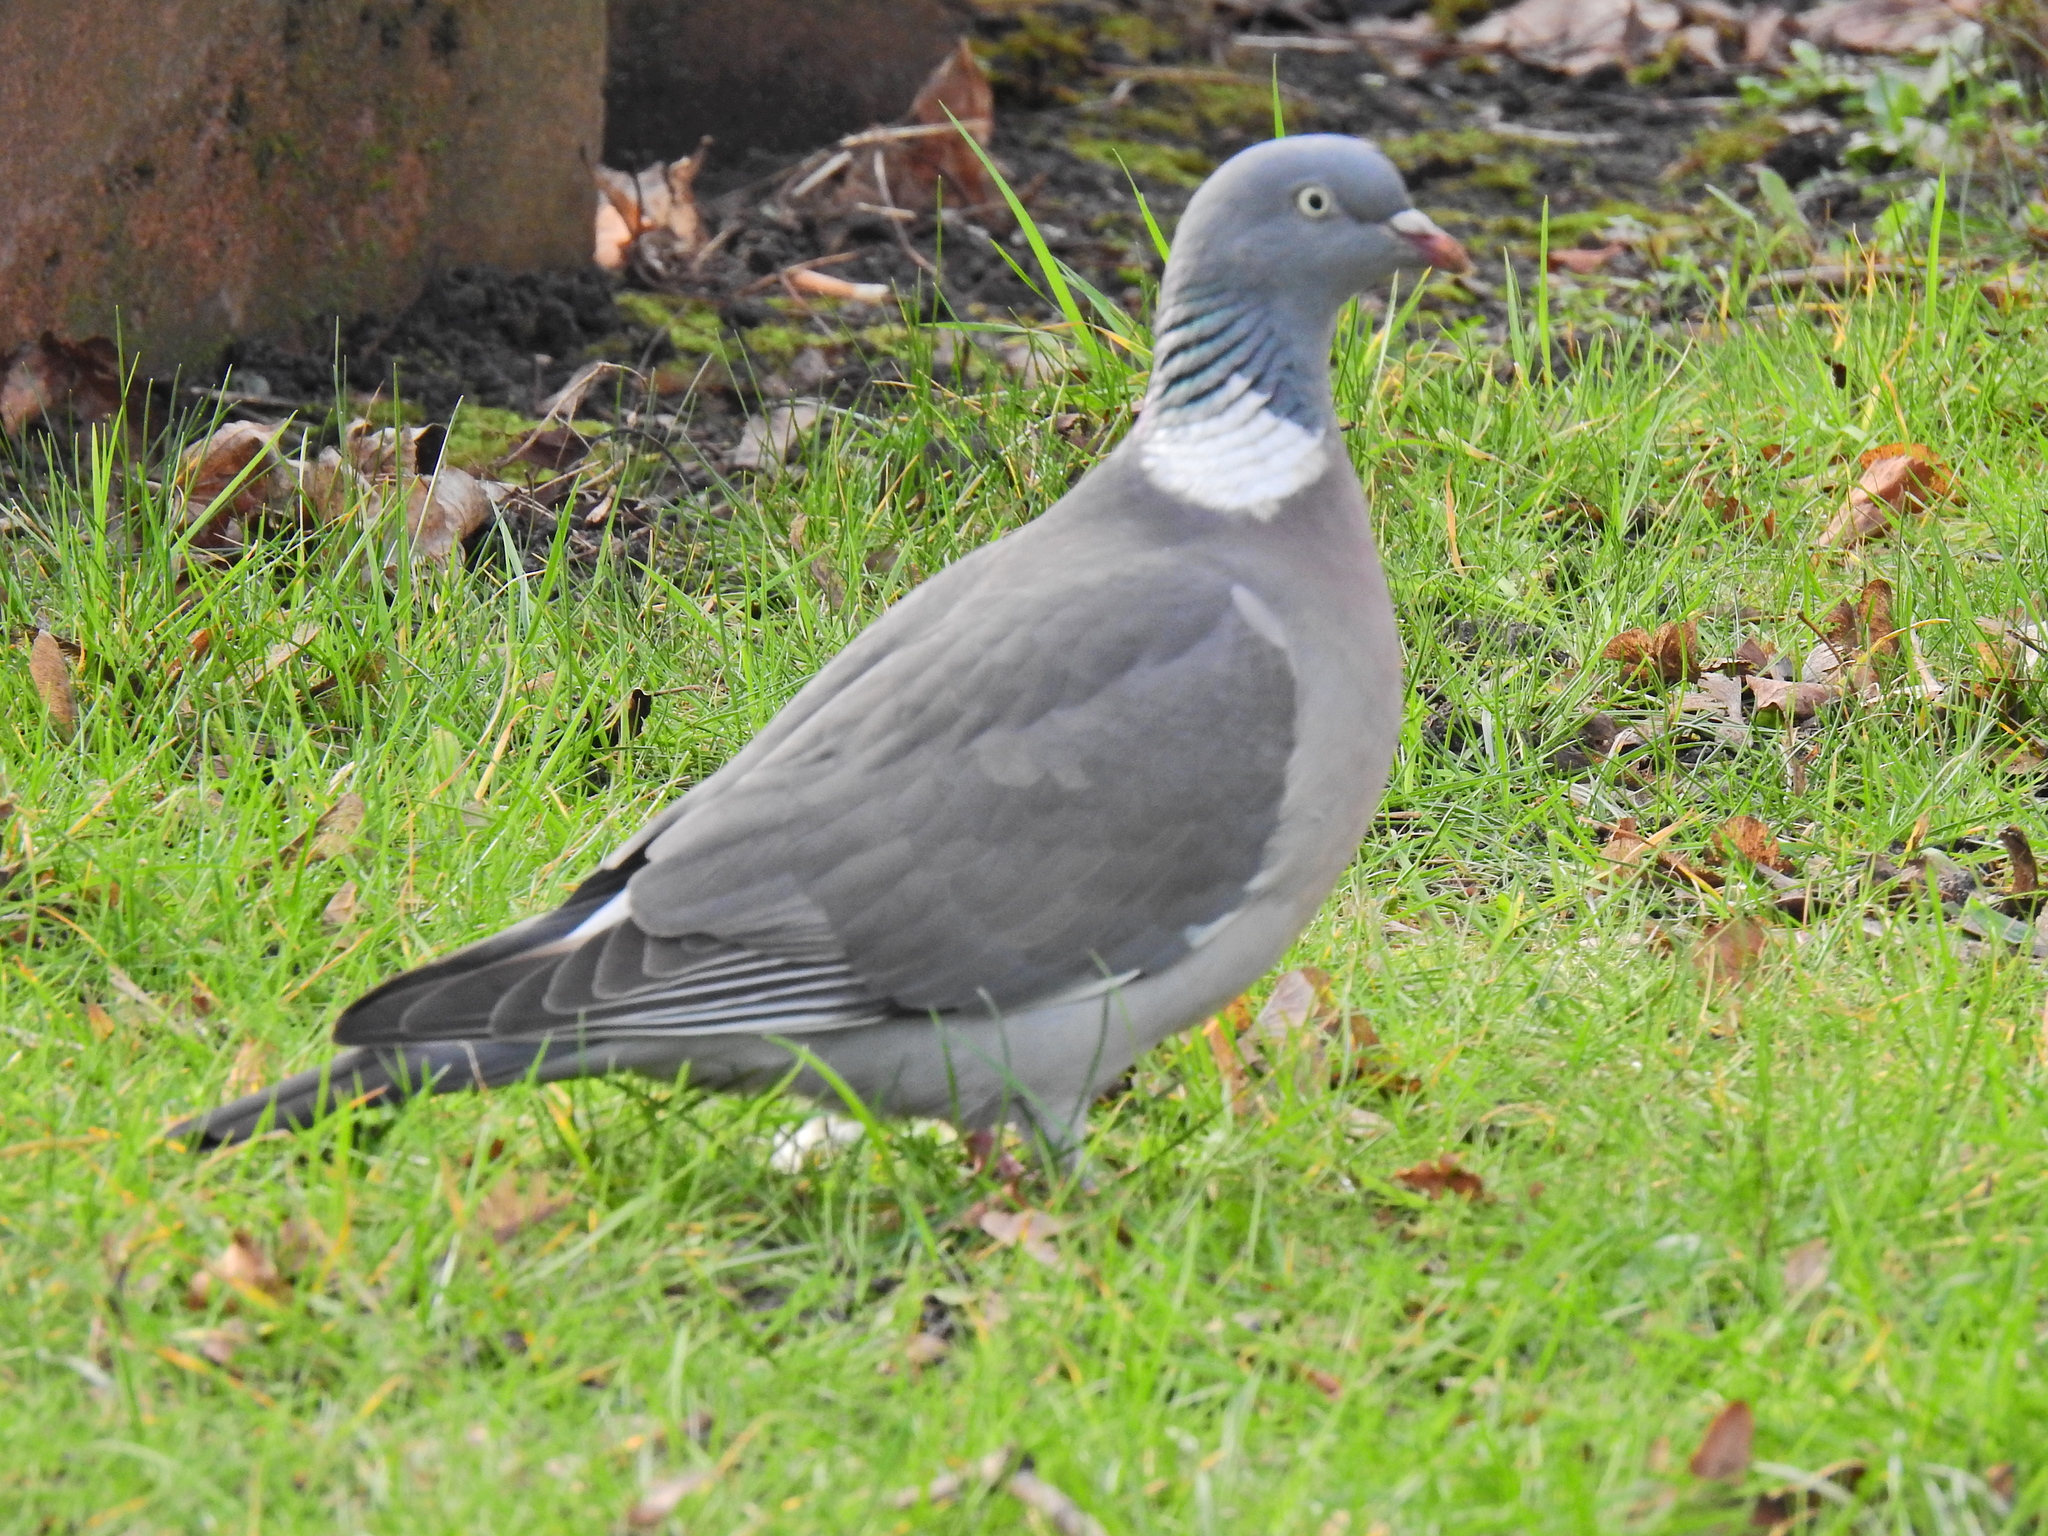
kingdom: Animalia
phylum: Chordata
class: Aves
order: Columbiformes
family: Columbidae
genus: Columba
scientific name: Columba palumbus
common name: Common wood pigeon
